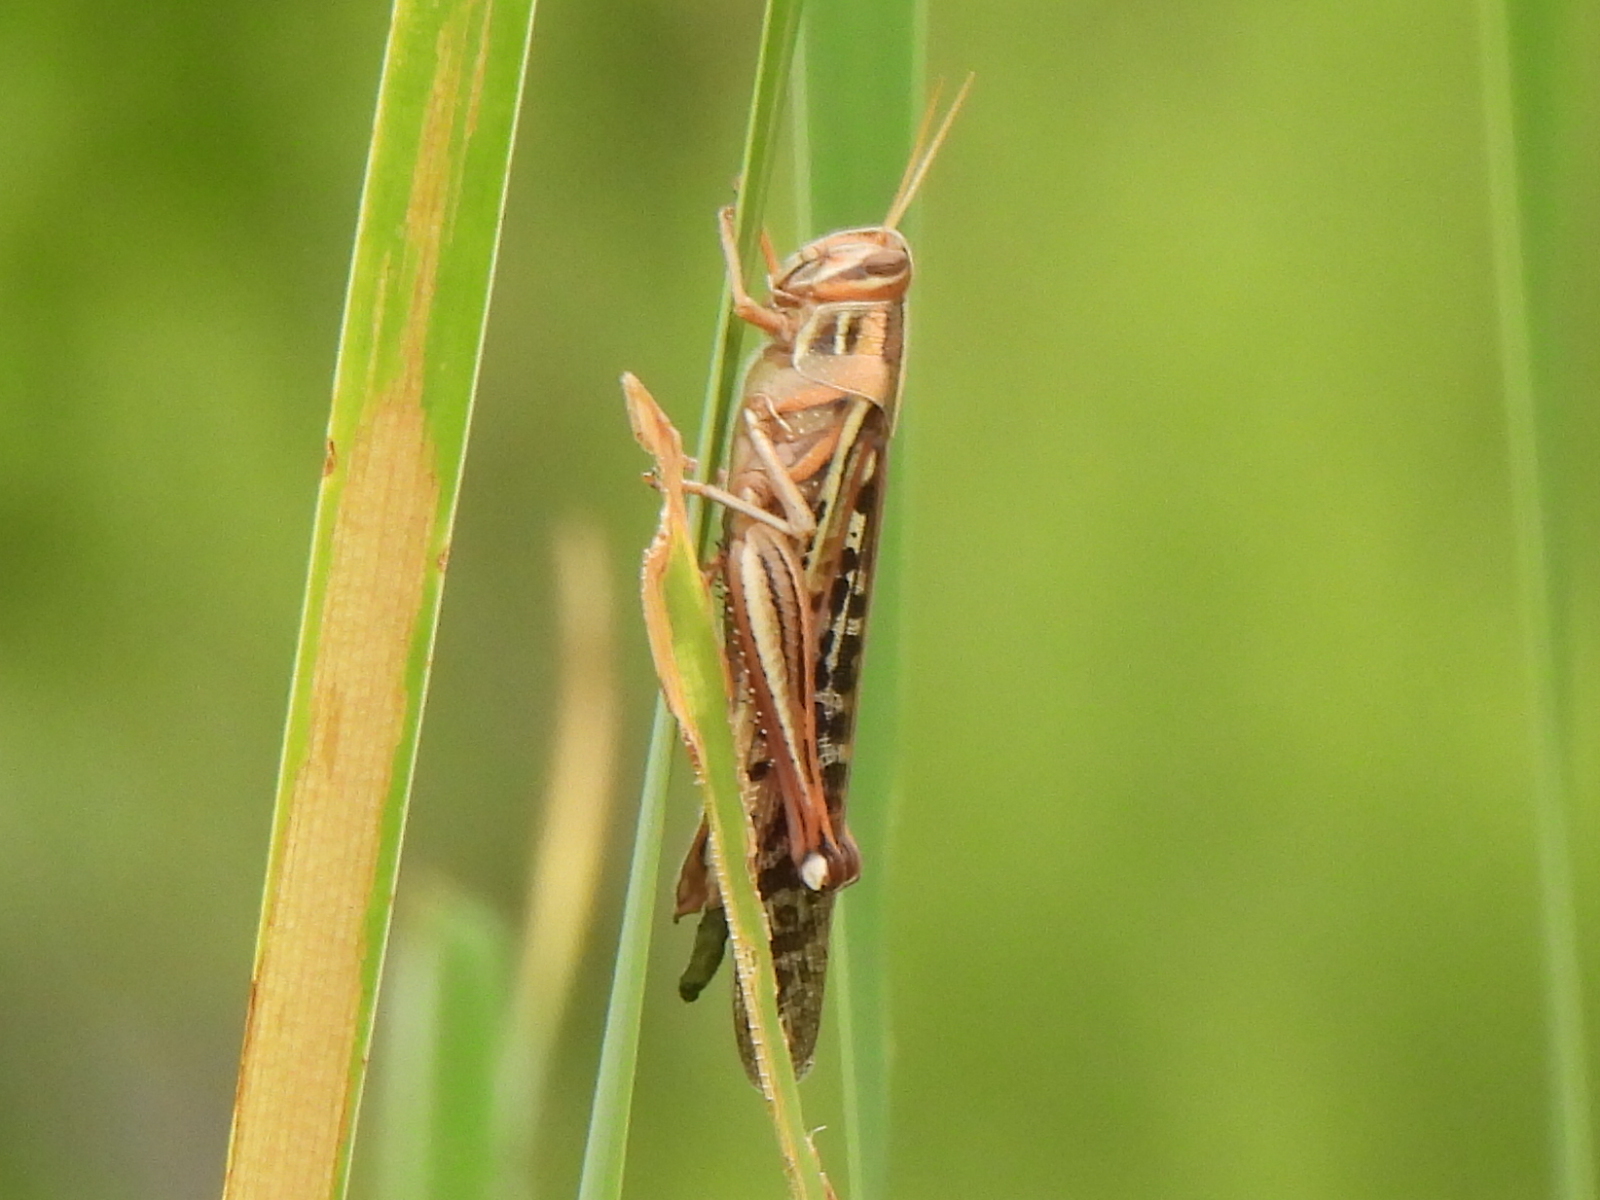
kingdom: Animalia
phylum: Arthropoda
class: Insecta
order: Orthoptera
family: Acrididae
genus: Schistocerca
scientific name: Schistocerca americana
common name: American bird locust
